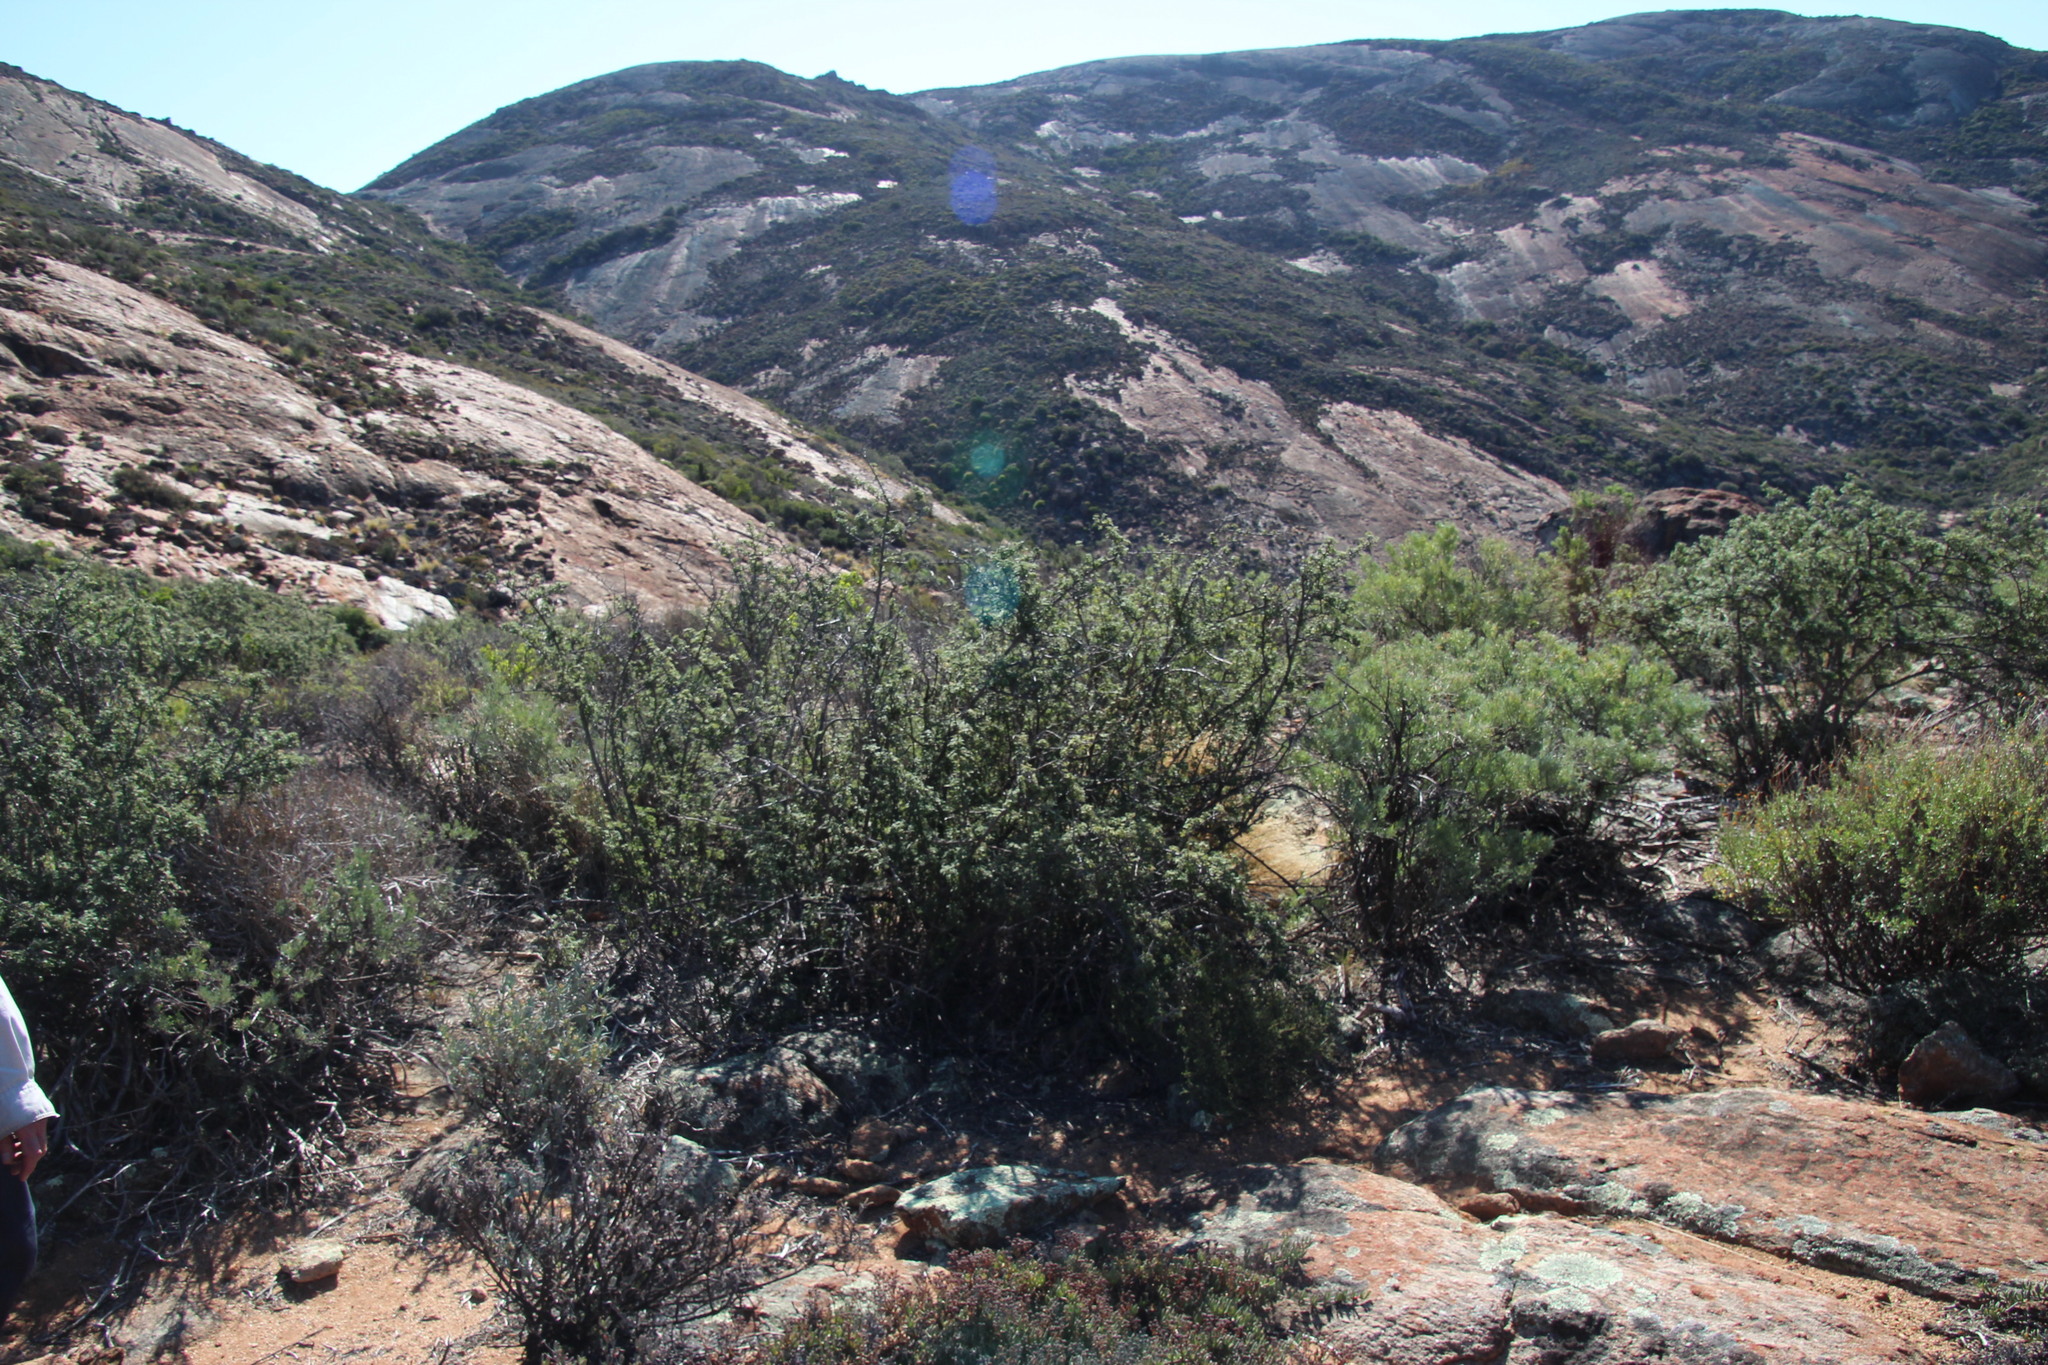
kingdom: Plantae
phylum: Tracheophyta
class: Magnoliopsida
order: Sapindales
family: Anacardiaceae
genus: Searsia
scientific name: Searsia incisa
